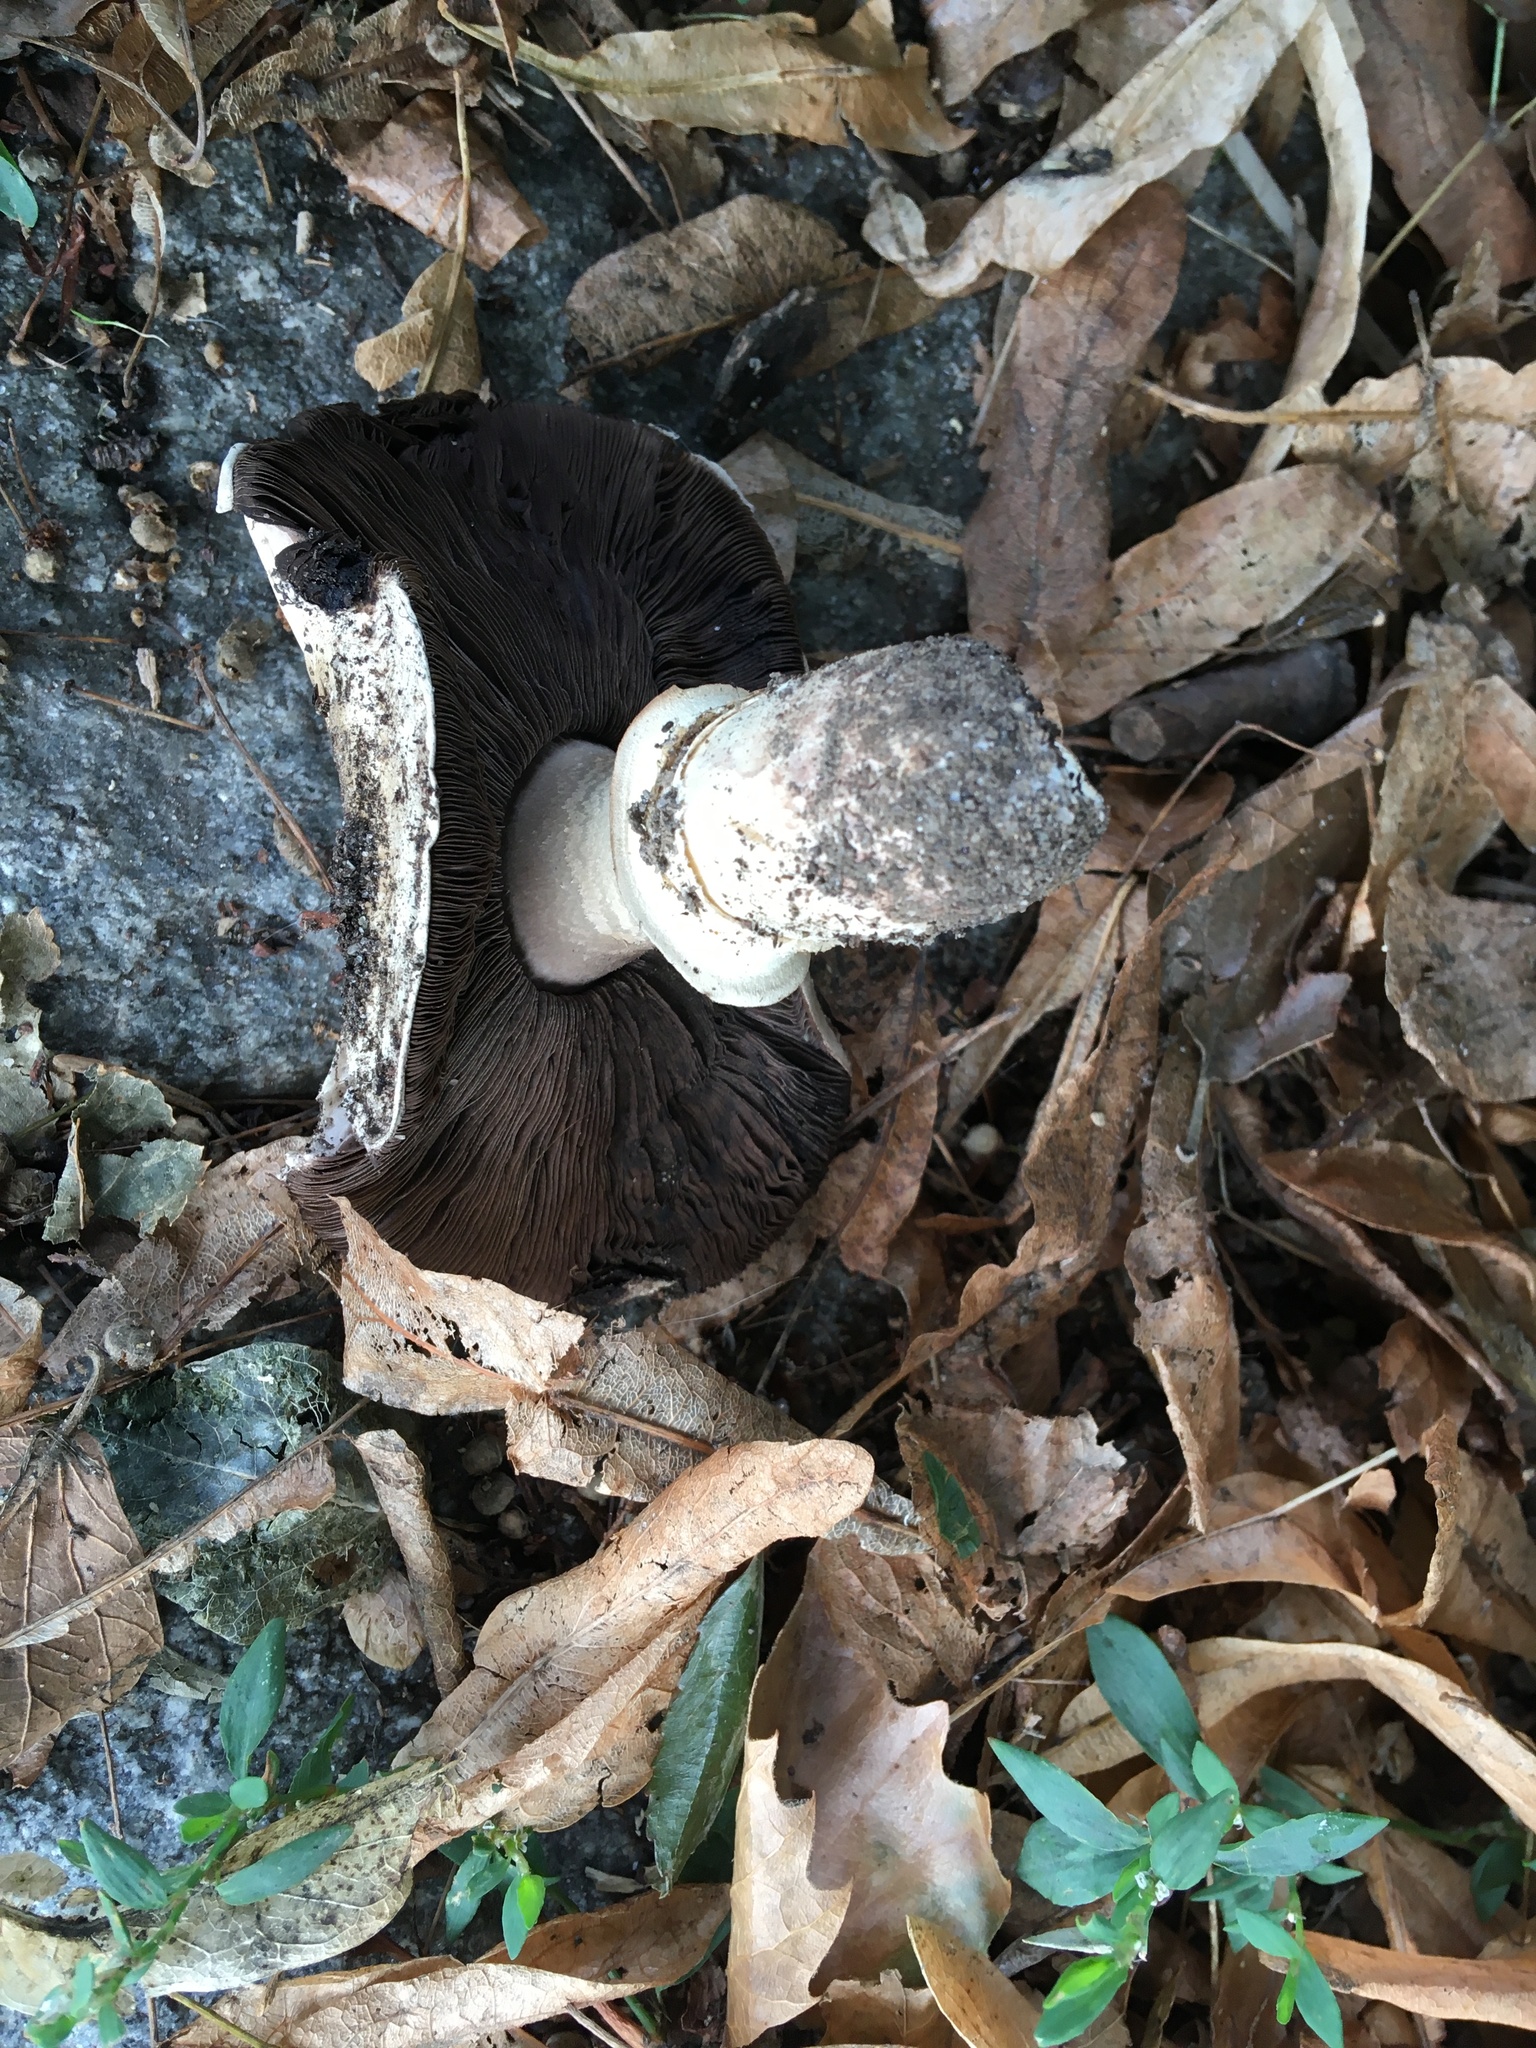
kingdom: Fungi
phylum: Basidiomycota
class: Agaricomycetes
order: Agaricales
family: Agaricaceae
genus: Agaricus
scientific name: Agaricus bitorquis
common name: Pavement mushroom
